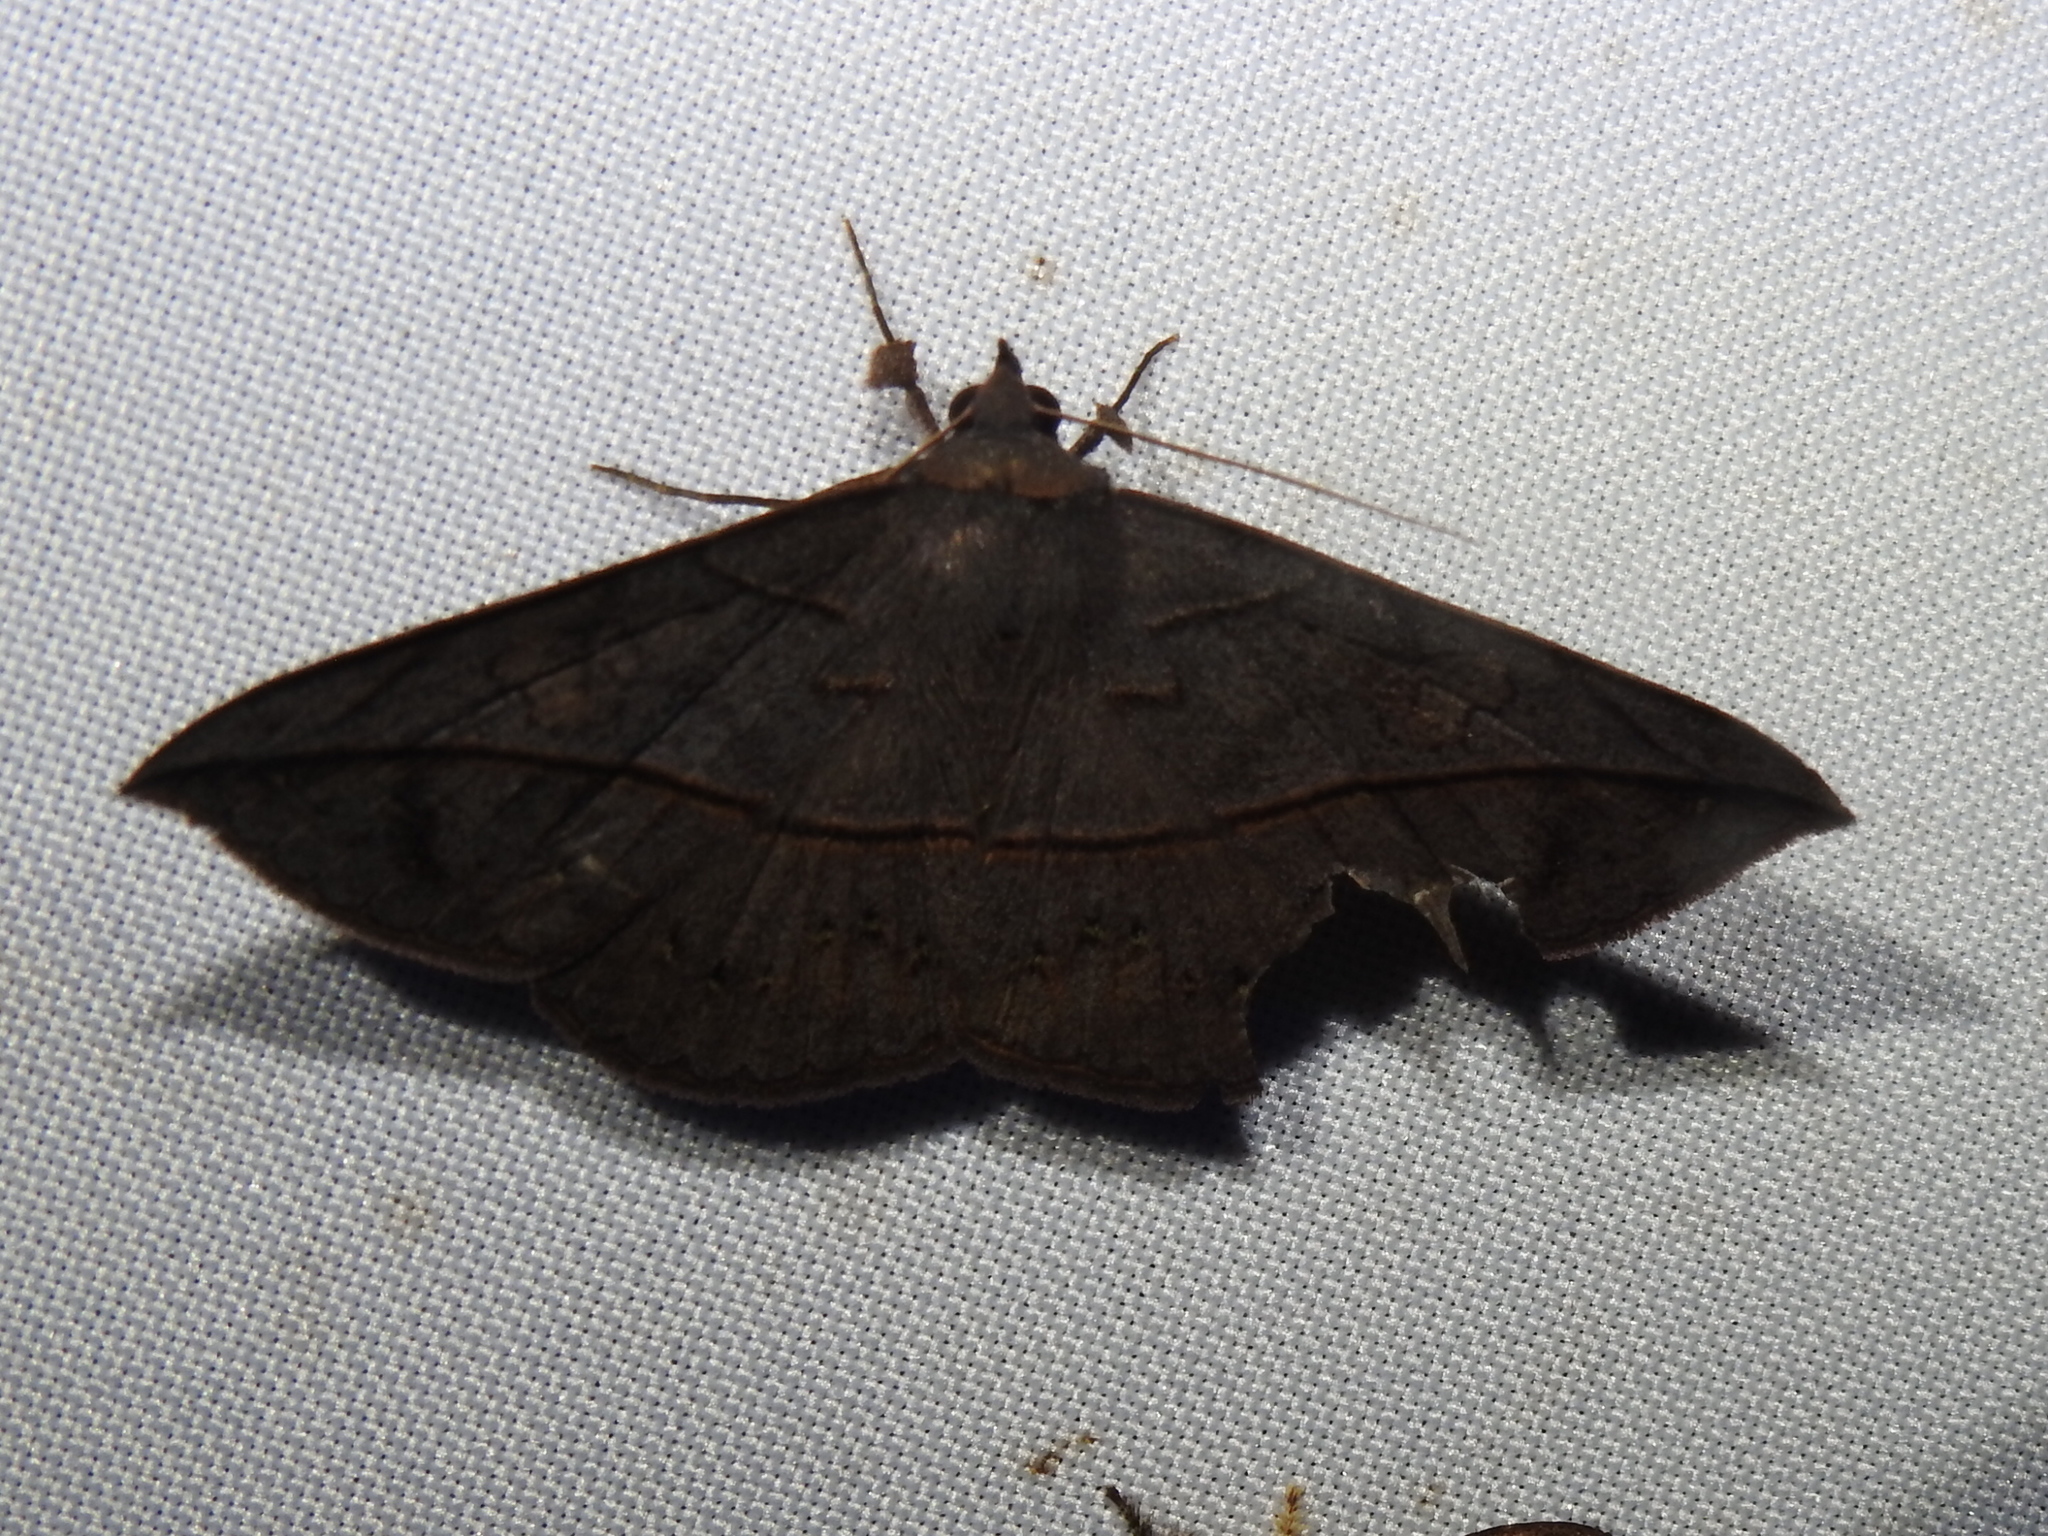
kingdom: Animalia
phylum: Arthropoda
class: Insecta
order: Lepidoptera
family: Erebidae
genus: Anticarsia
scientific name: Anticarsia anisospila
